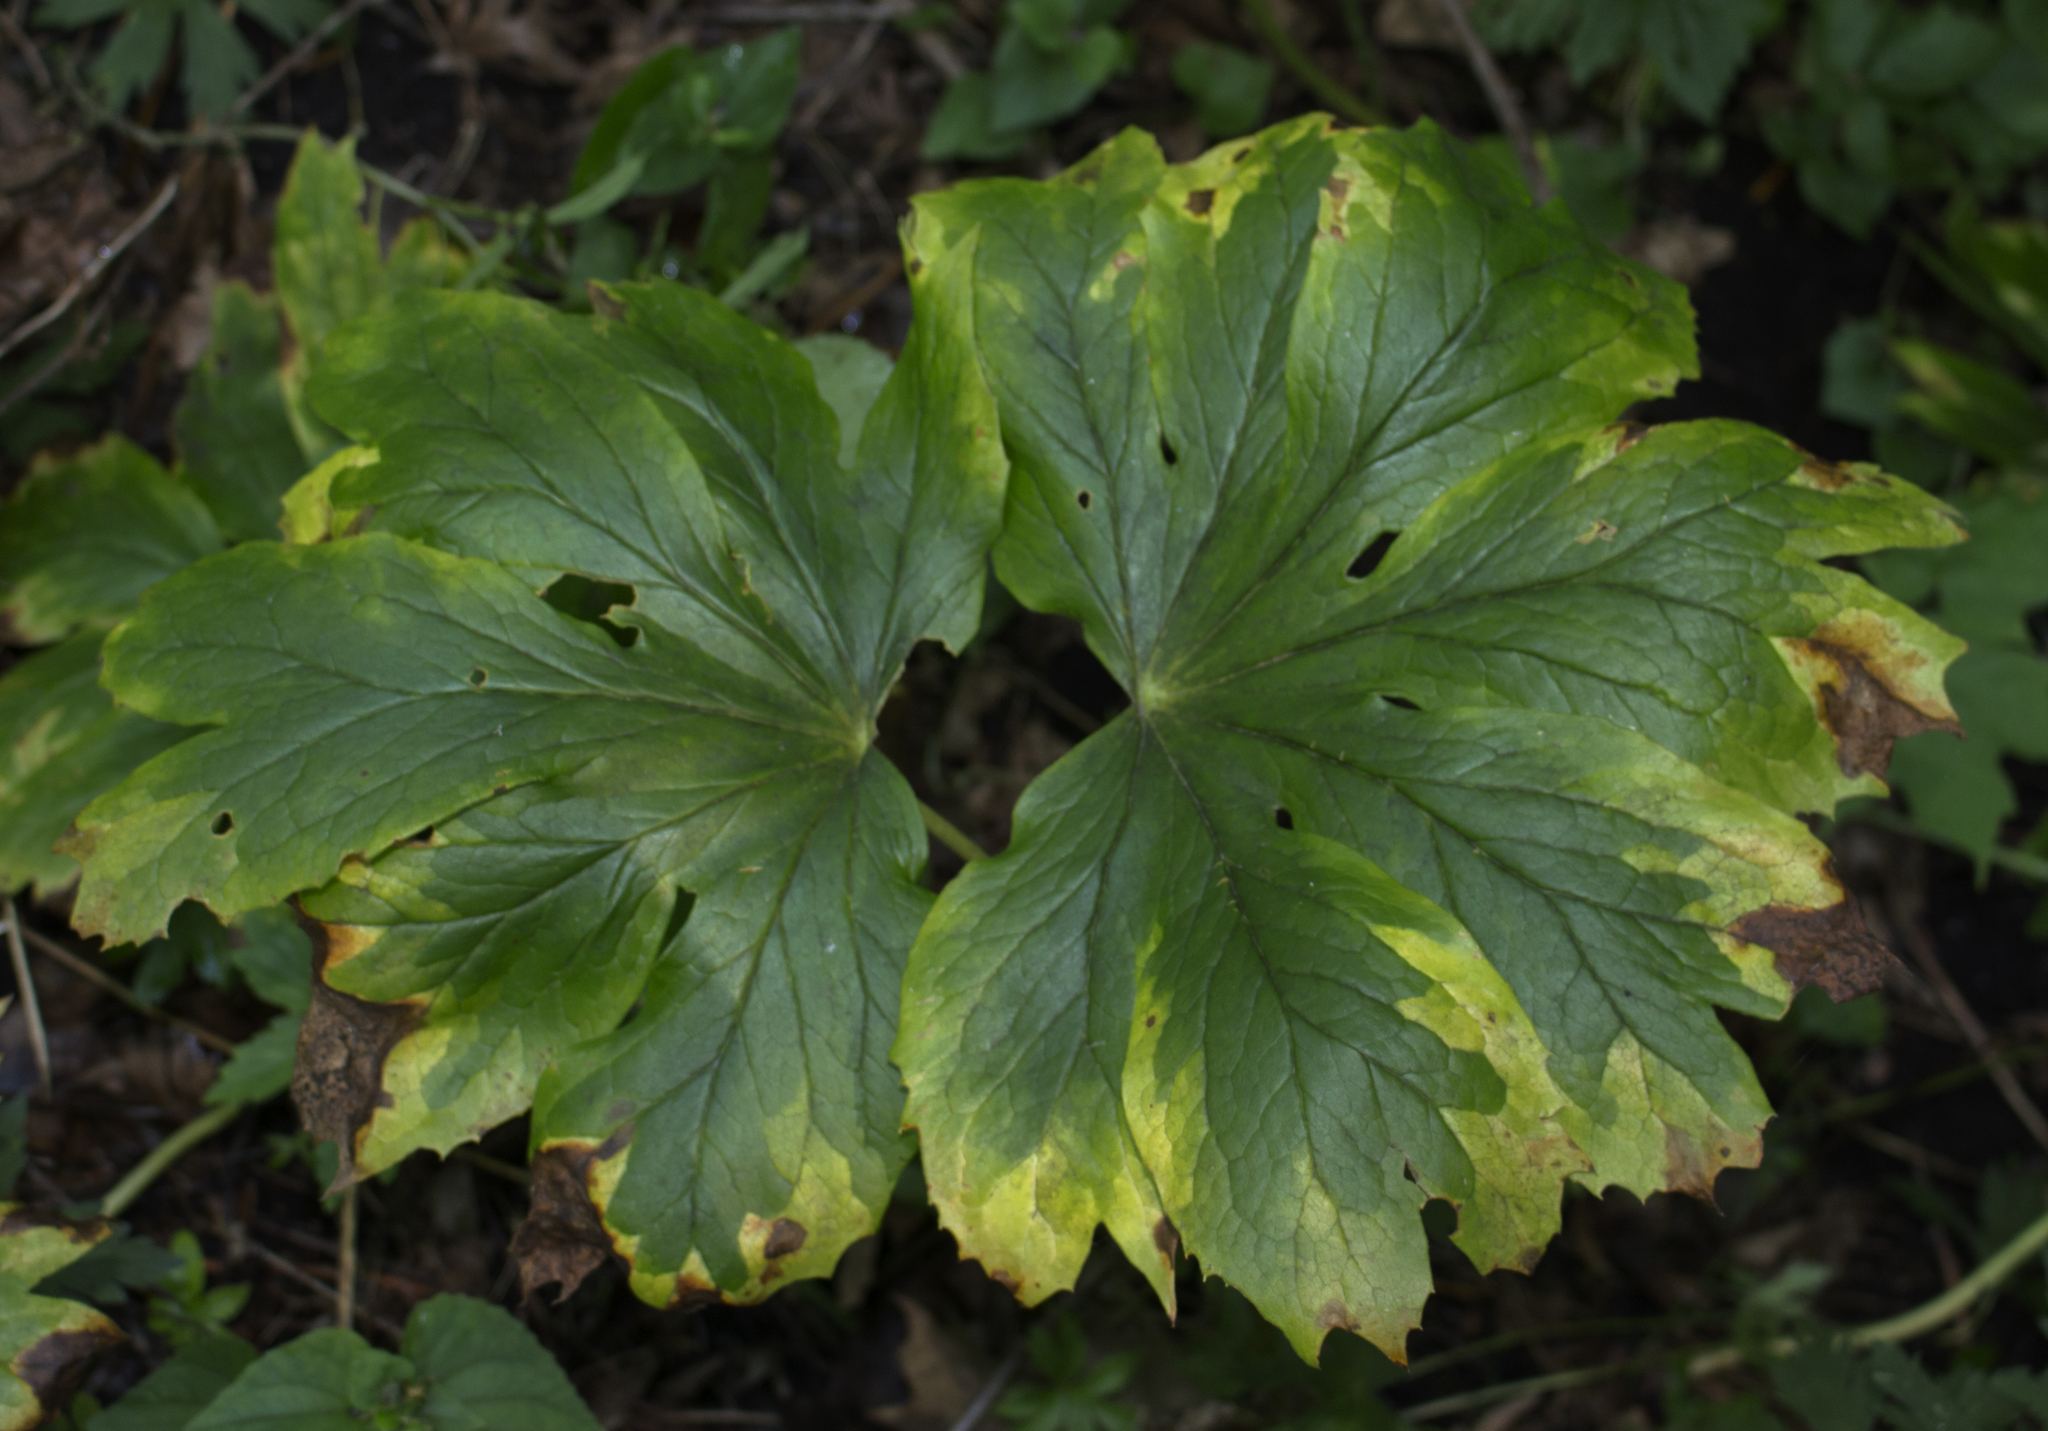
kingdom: Plantae
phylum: Tracheophyta
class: Magnoliopsida
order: Ranunculales
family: Berberidaceae
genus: Podophyllum
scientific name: Podophyllum peltatum
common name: Wild mandrake
